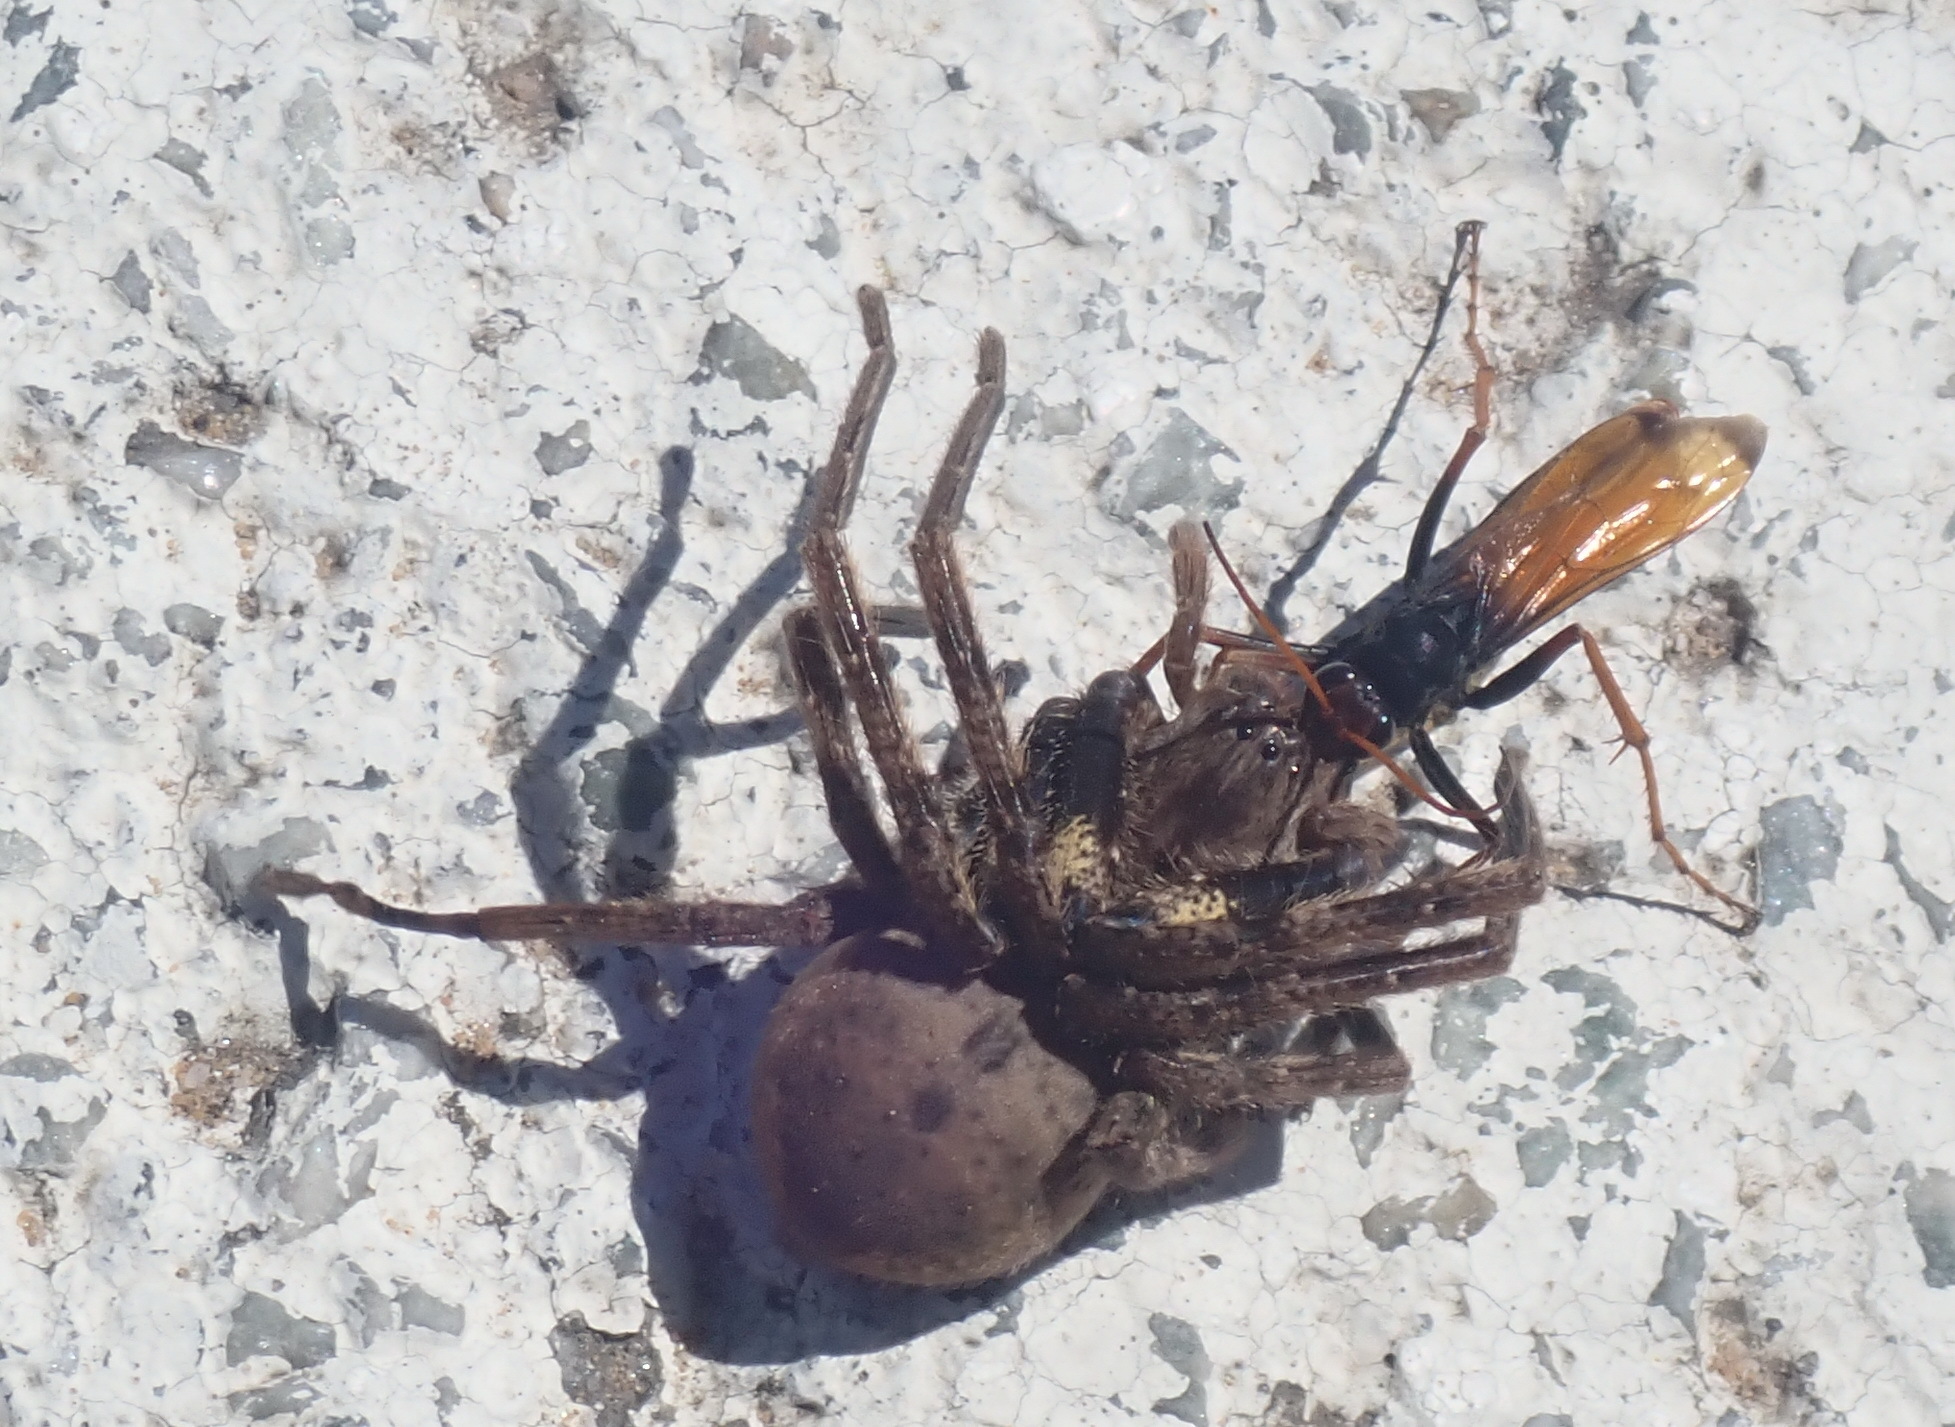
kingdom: Animalia
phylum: Arthropoda
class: Insecta
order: Hymenoptera
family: Pompilidae
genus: Tachypompilus
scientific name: Tachypompilus ignitus
